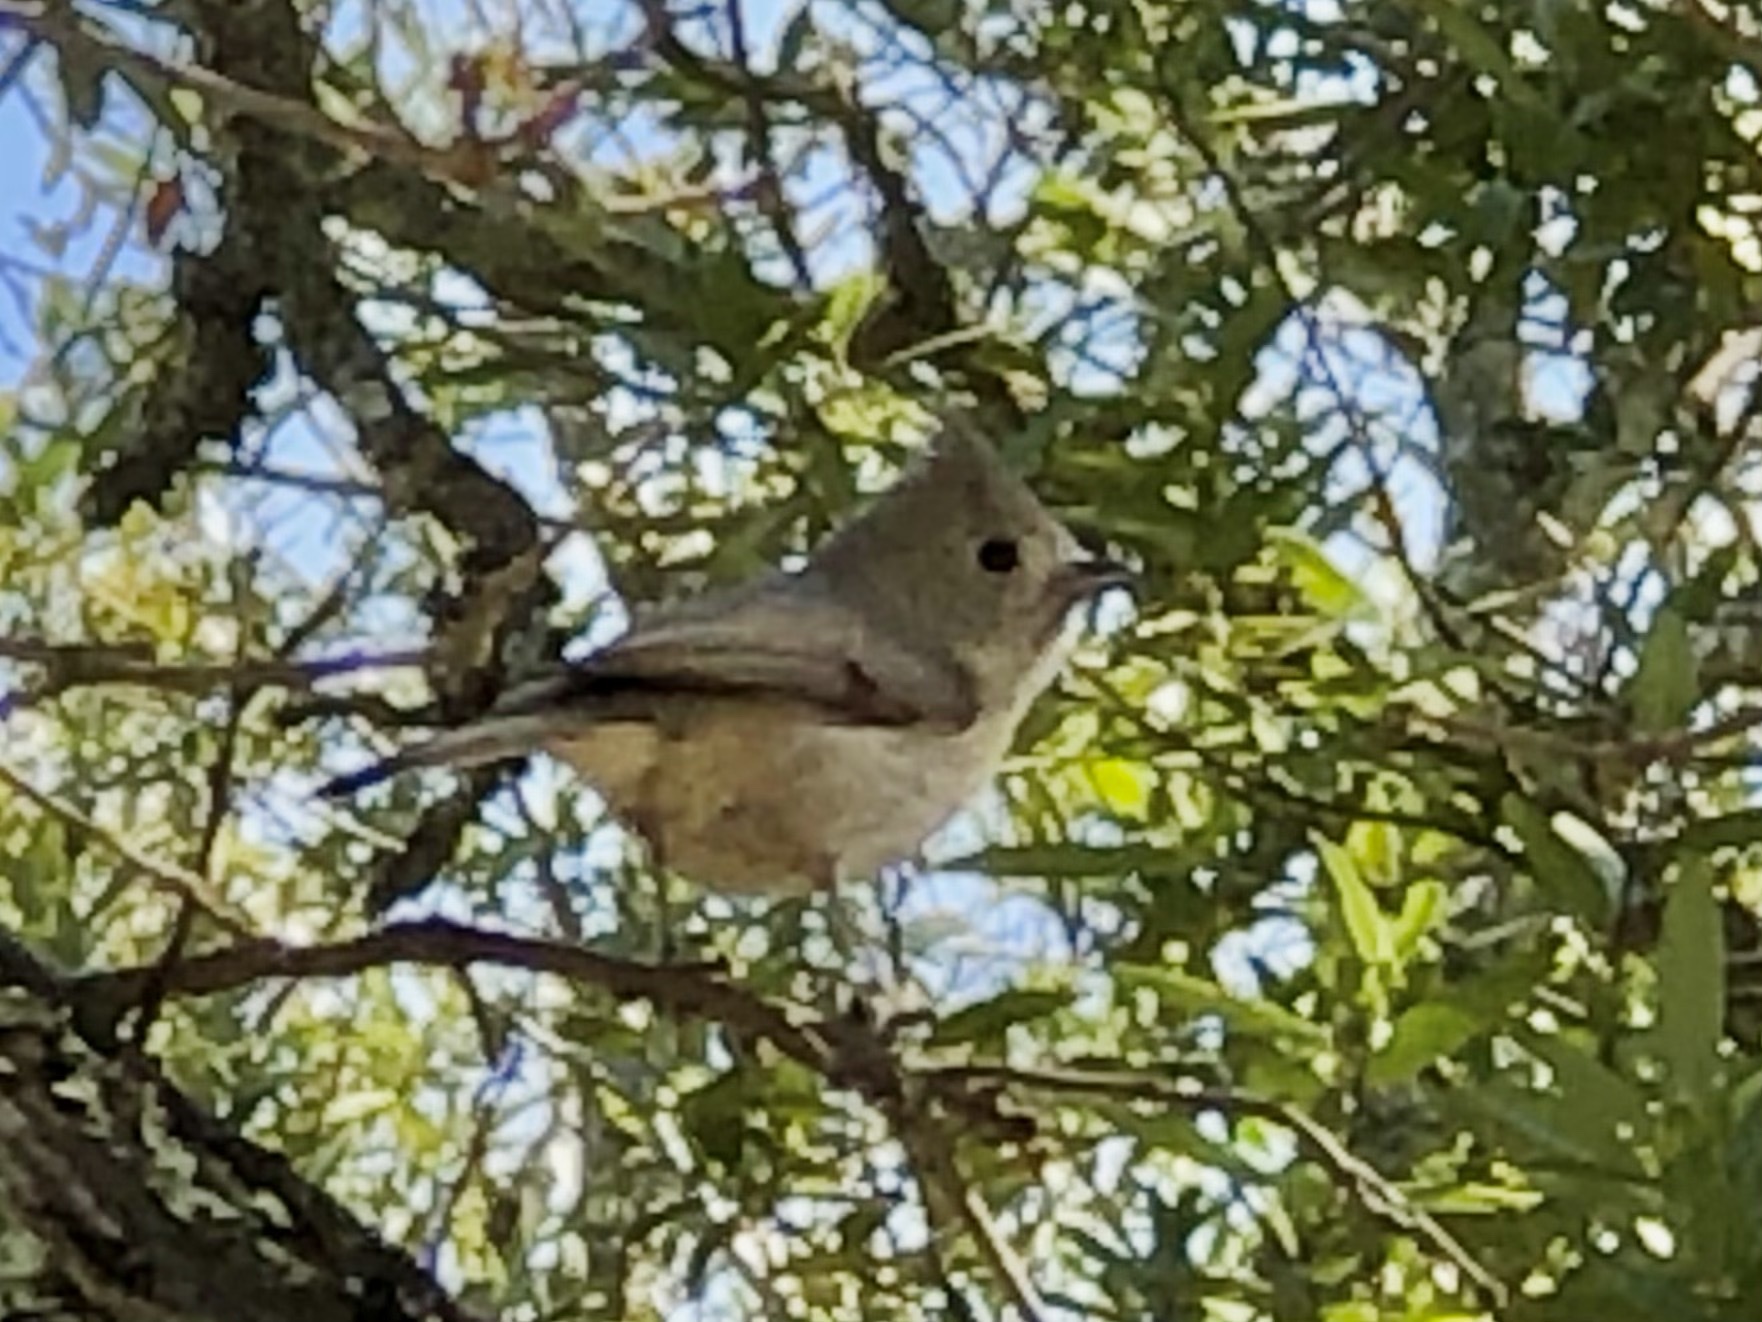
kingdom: Animalia
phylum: Chordata
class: Aves
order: Passeriformes
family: Paridae
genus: Baeolophus
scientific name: Baeolophus inornatus
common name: Oak titmouse
